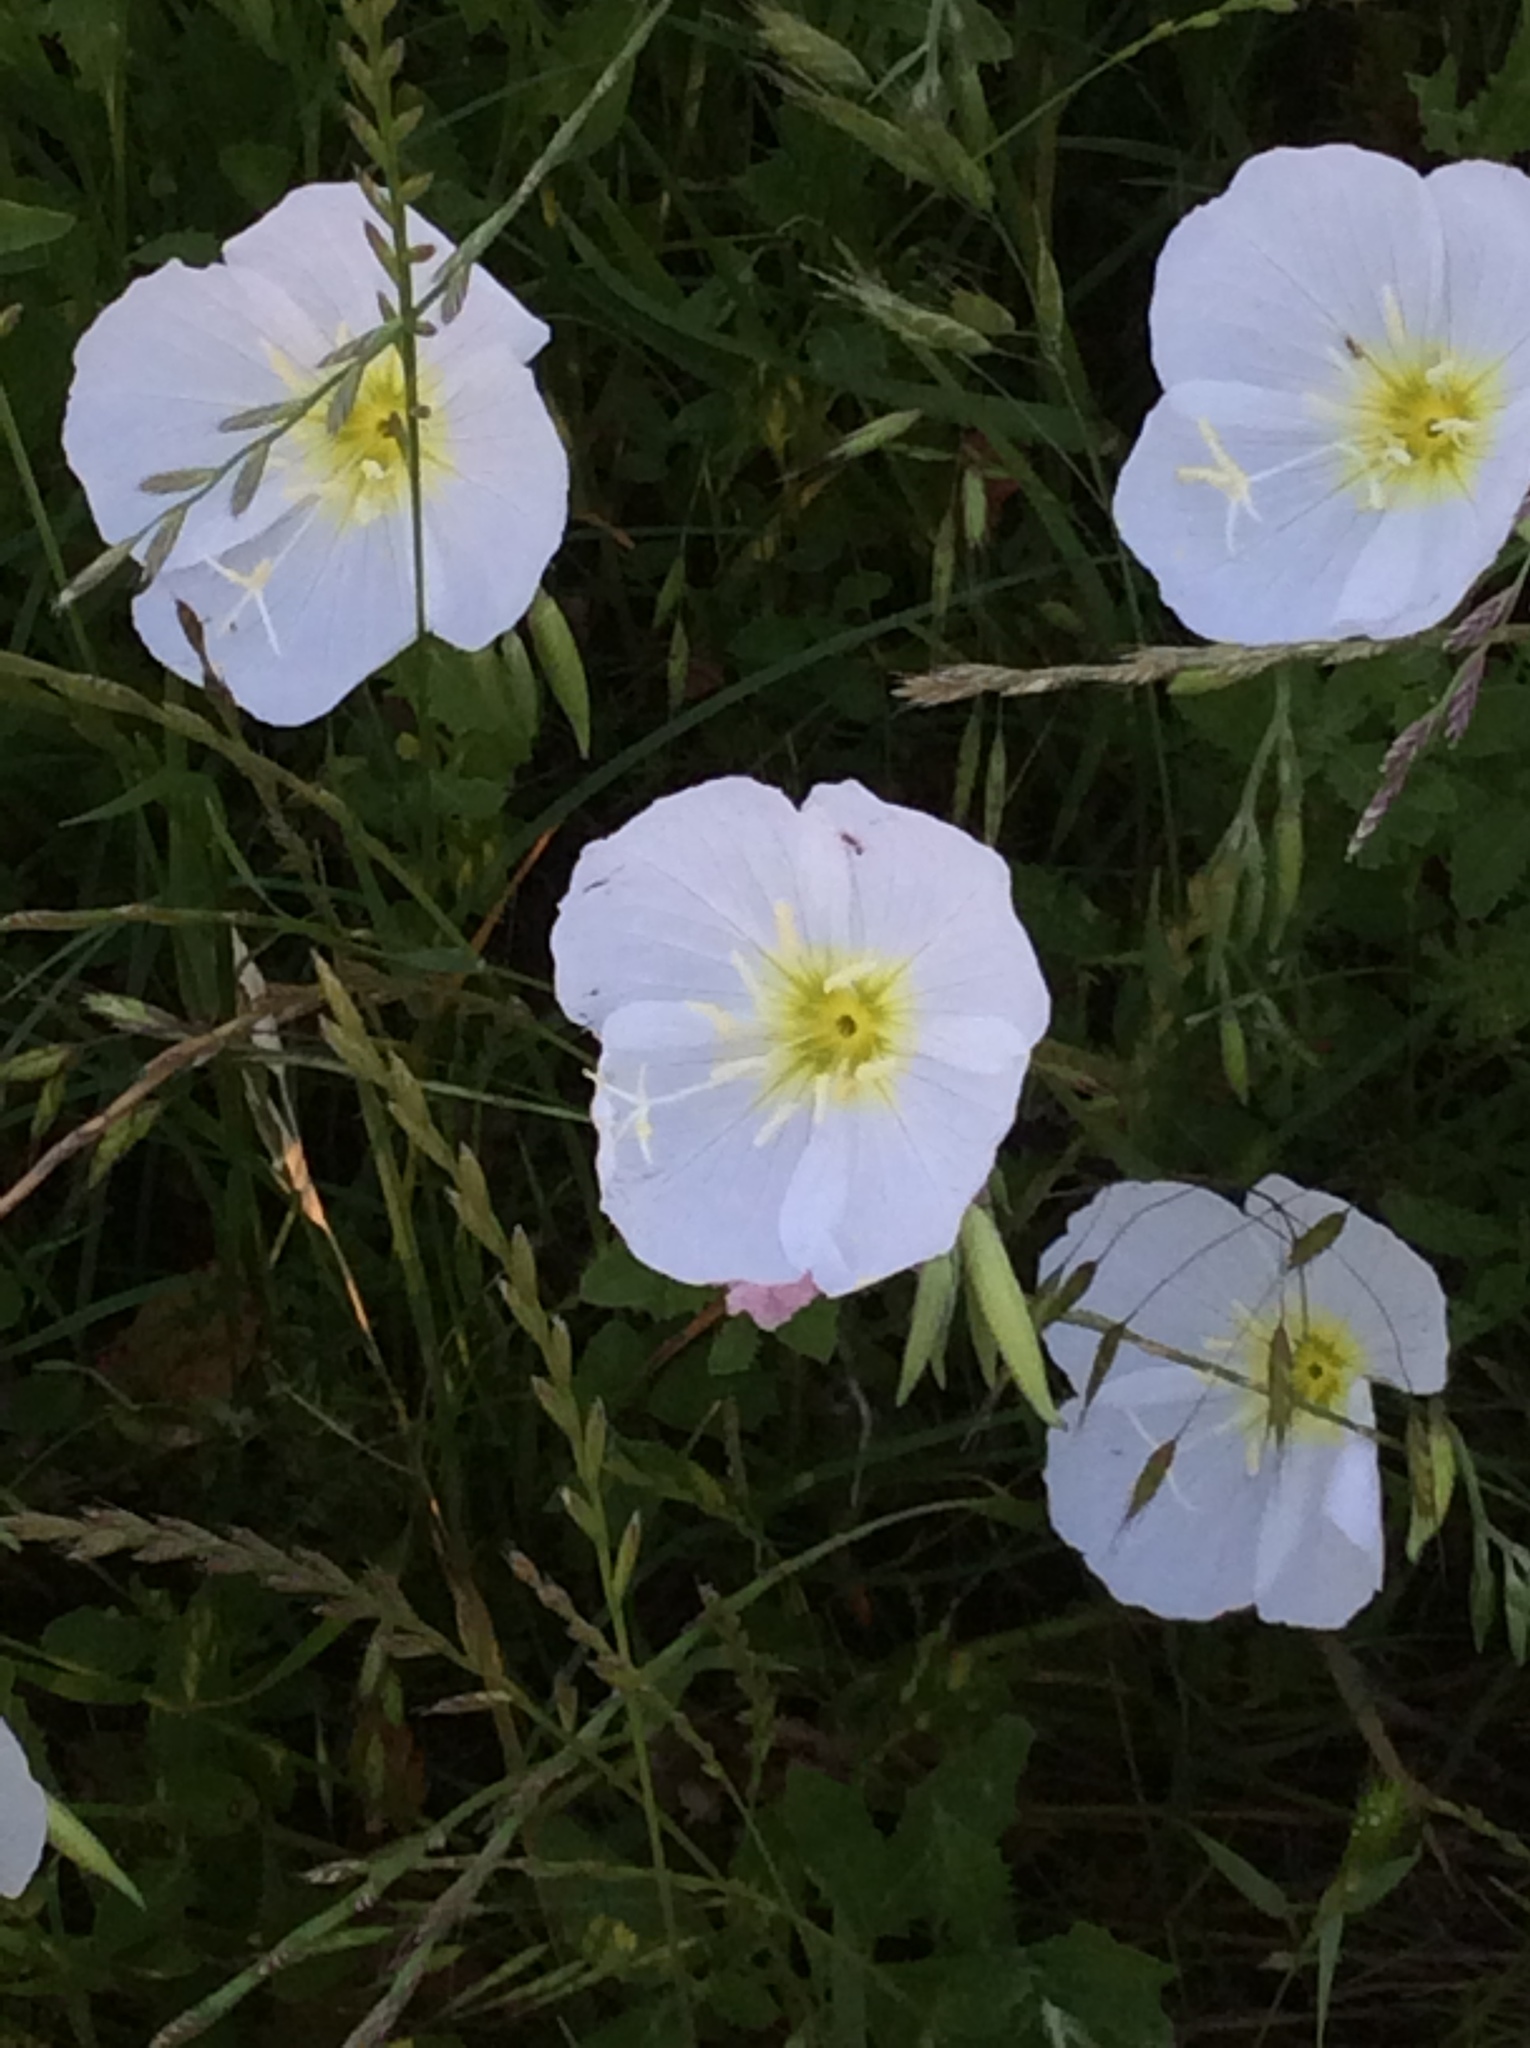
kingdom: Plantae
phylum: Tracheophyta
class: Magnoliopsida
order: Myrtales
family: Onagraceae
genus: Oenothera
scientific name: Oenothera speciosa
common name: White evening-primrose
